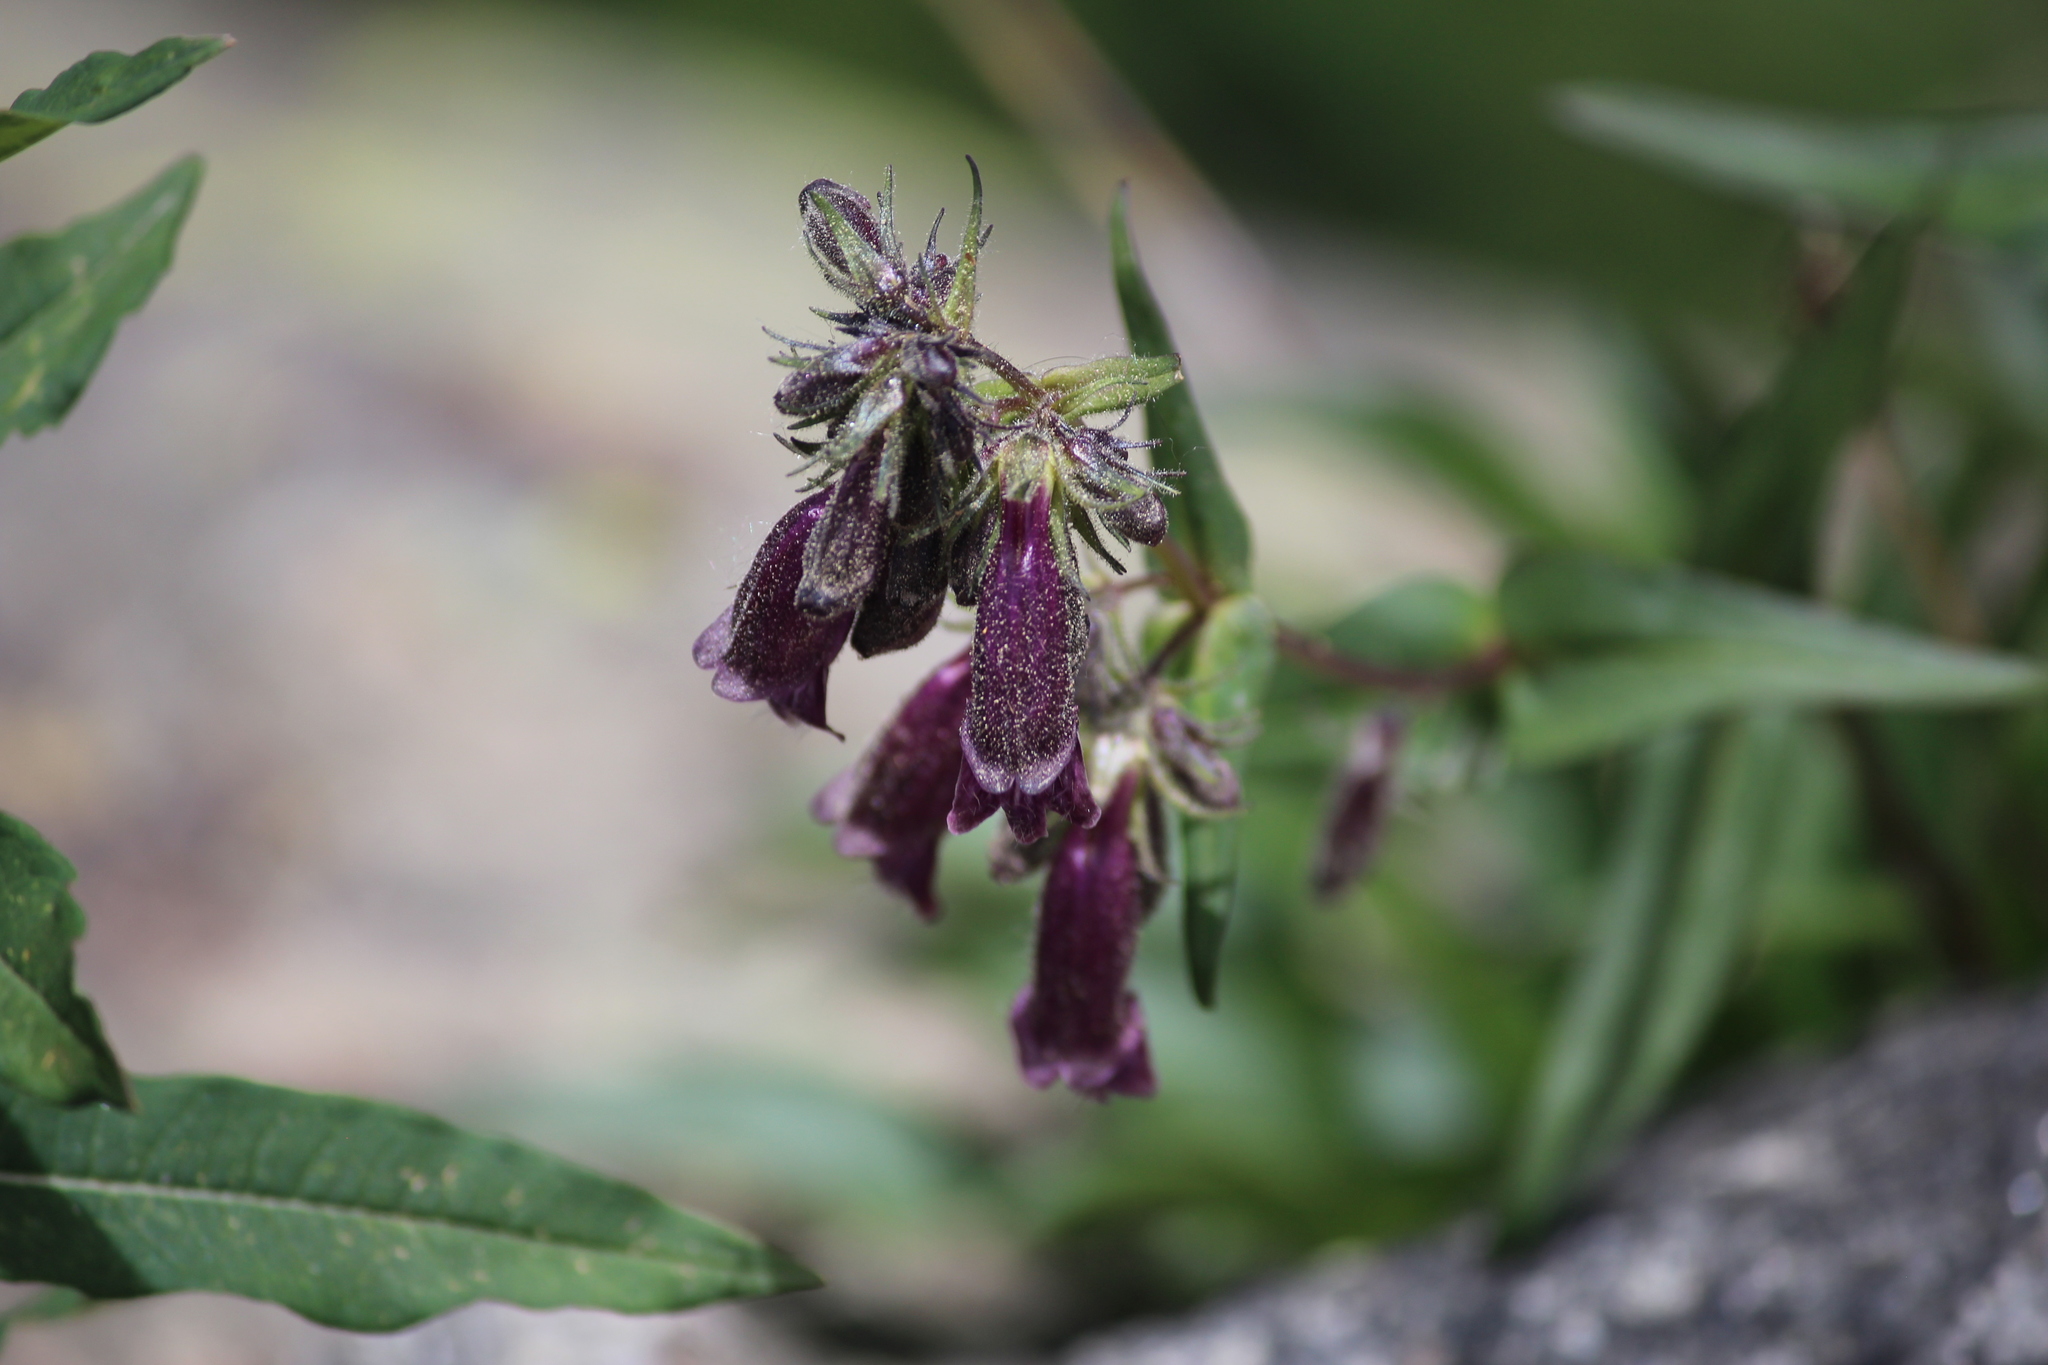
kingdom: Plantae
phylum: Tracheophyta
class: Magnoliopsida
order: Lamiales
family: Plantaginaceae
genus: Penstemon
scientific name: Penstemon whippleanus
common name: Whipple's penstemon
